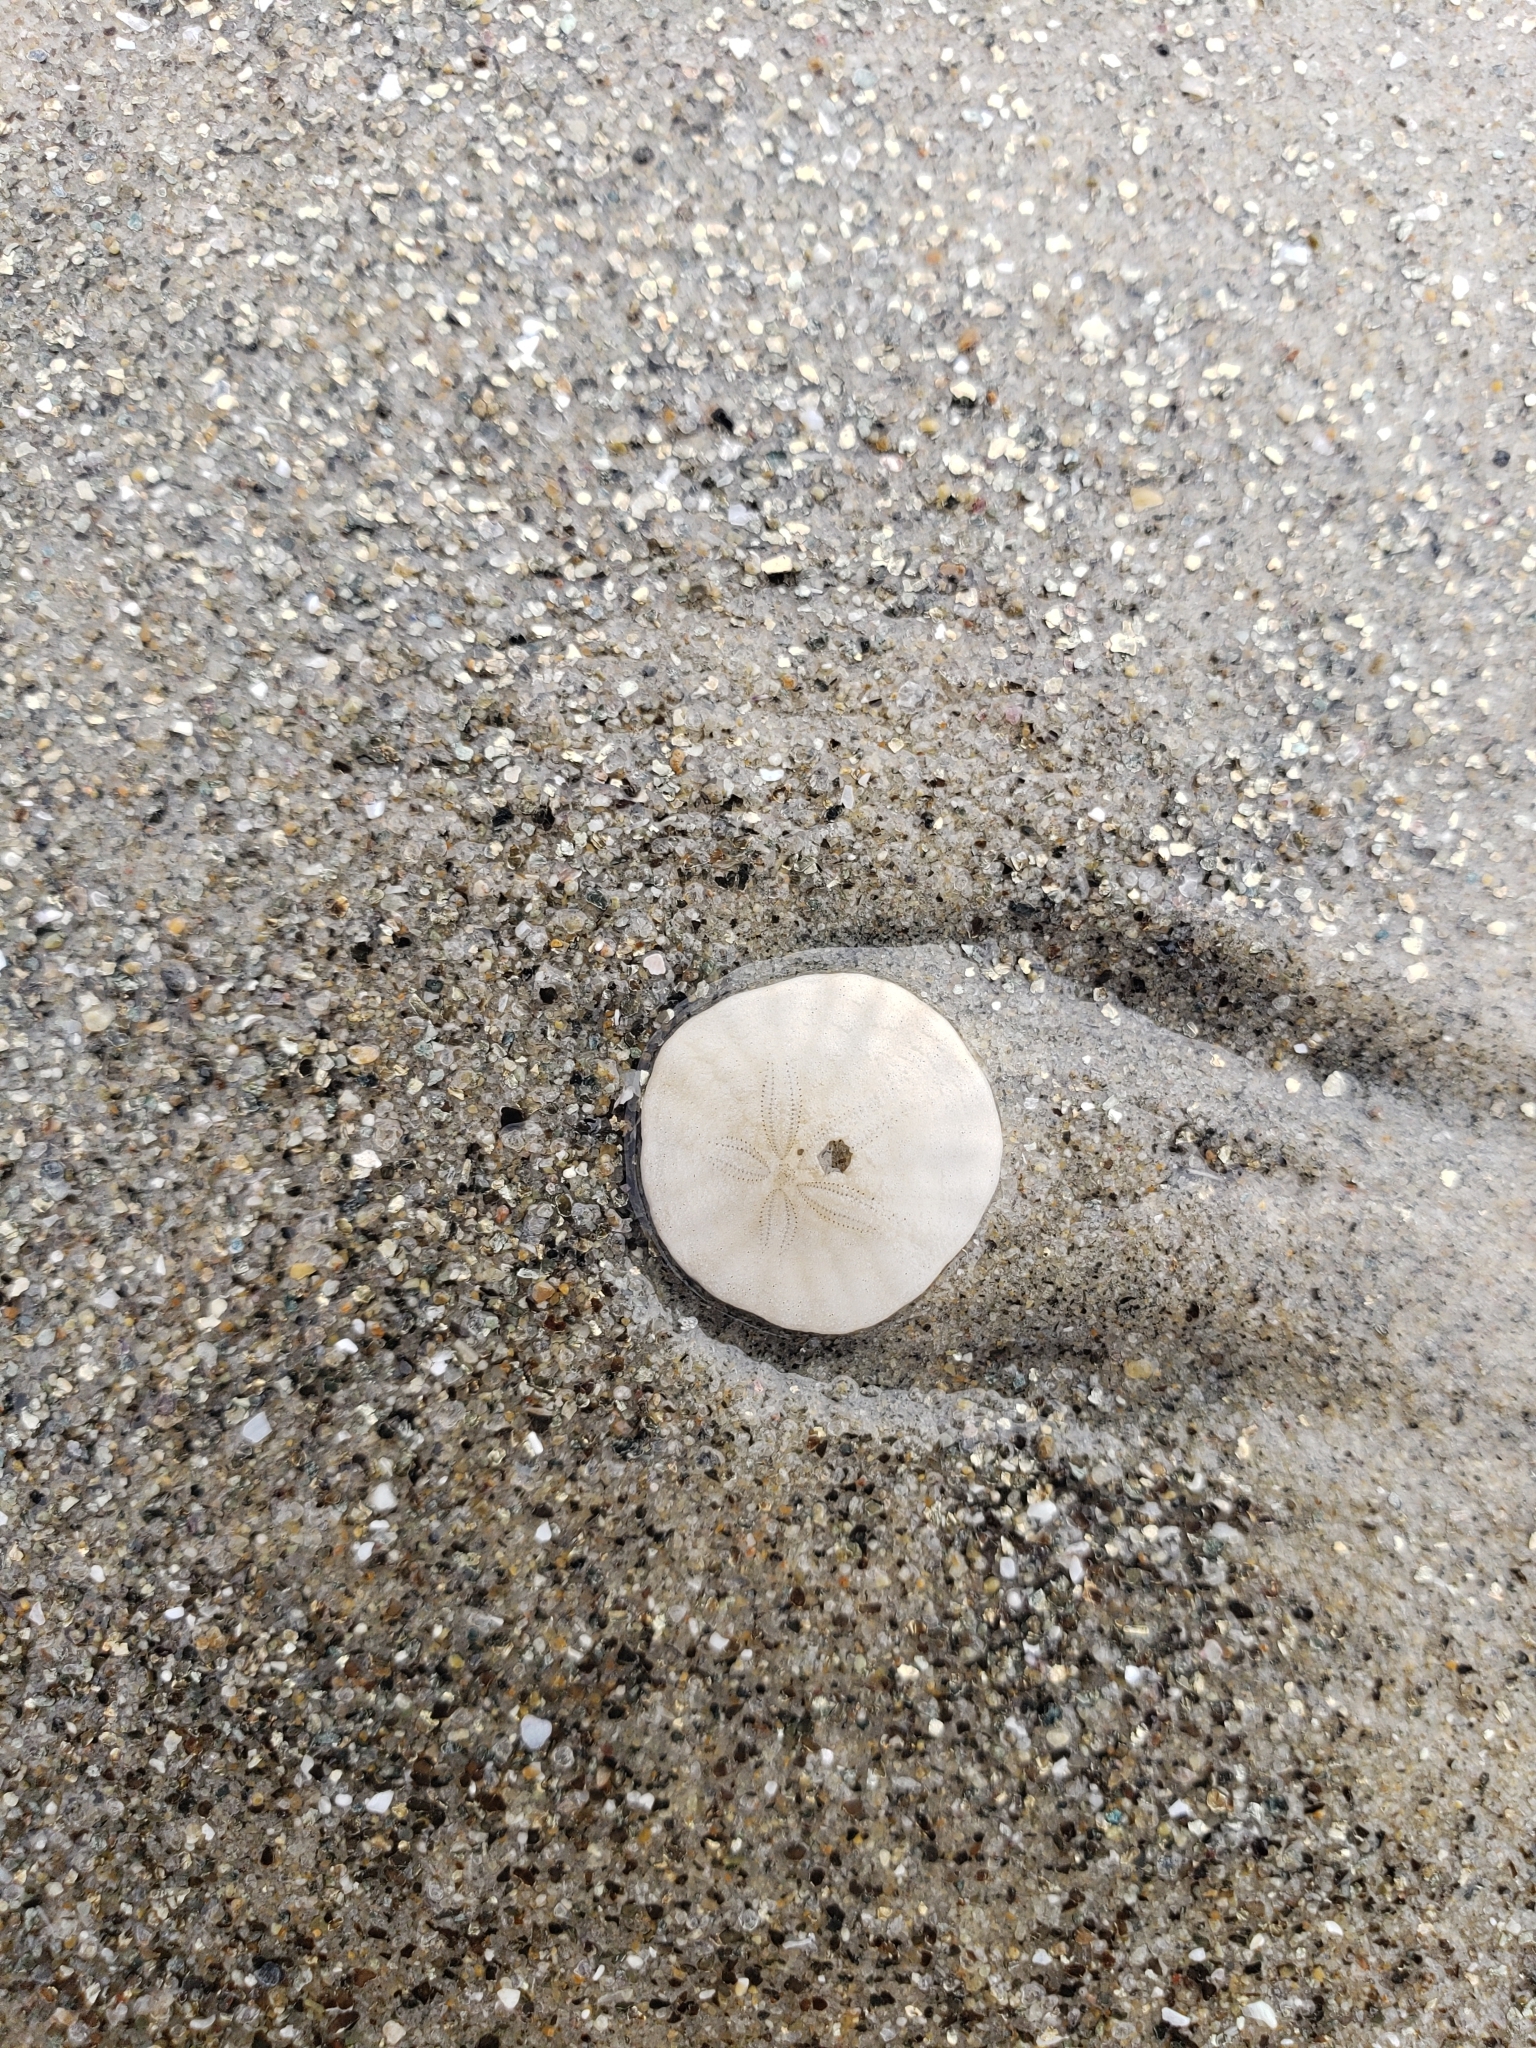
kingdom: Animalia
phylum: Echinodermata
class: Echinoidea
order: Echinolampadacea
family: Dendrasteridae
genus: Dendraster
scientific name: Dendraster excentricus
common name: Eccentric sand dollar sea urchin
